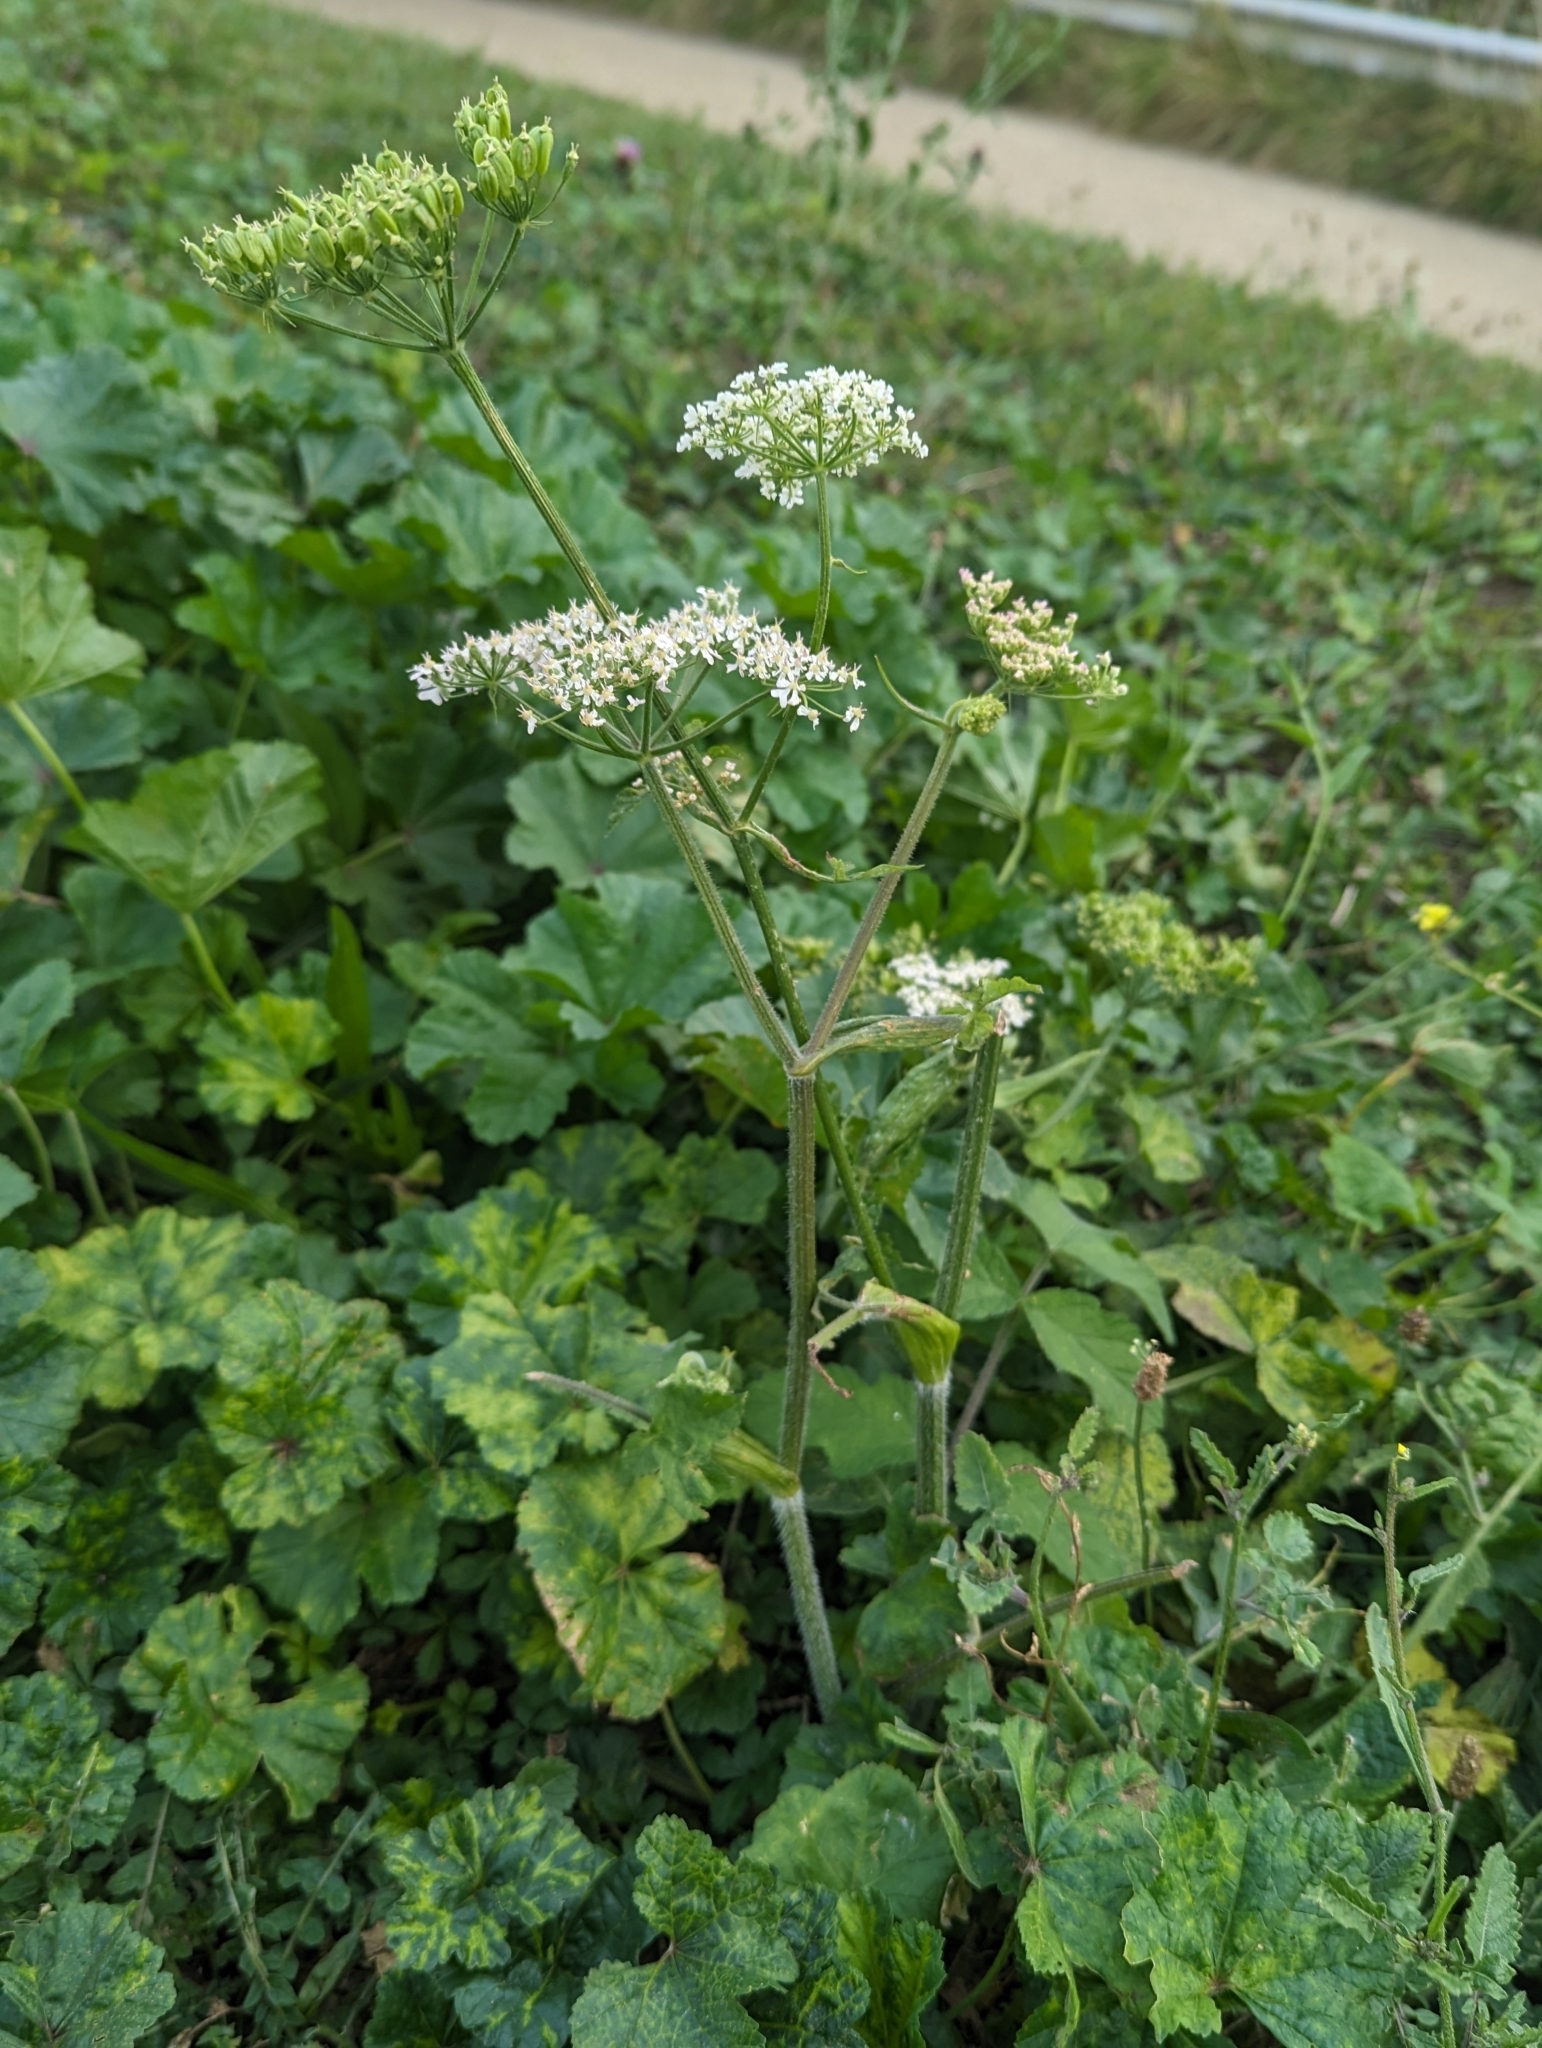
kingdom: Plantae
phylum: Tracheophyta
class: Magnoliopsida
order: Apiales
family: Apiaceae
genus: Heracleum
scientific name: Heracleum sphondylium
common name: Hogweed
